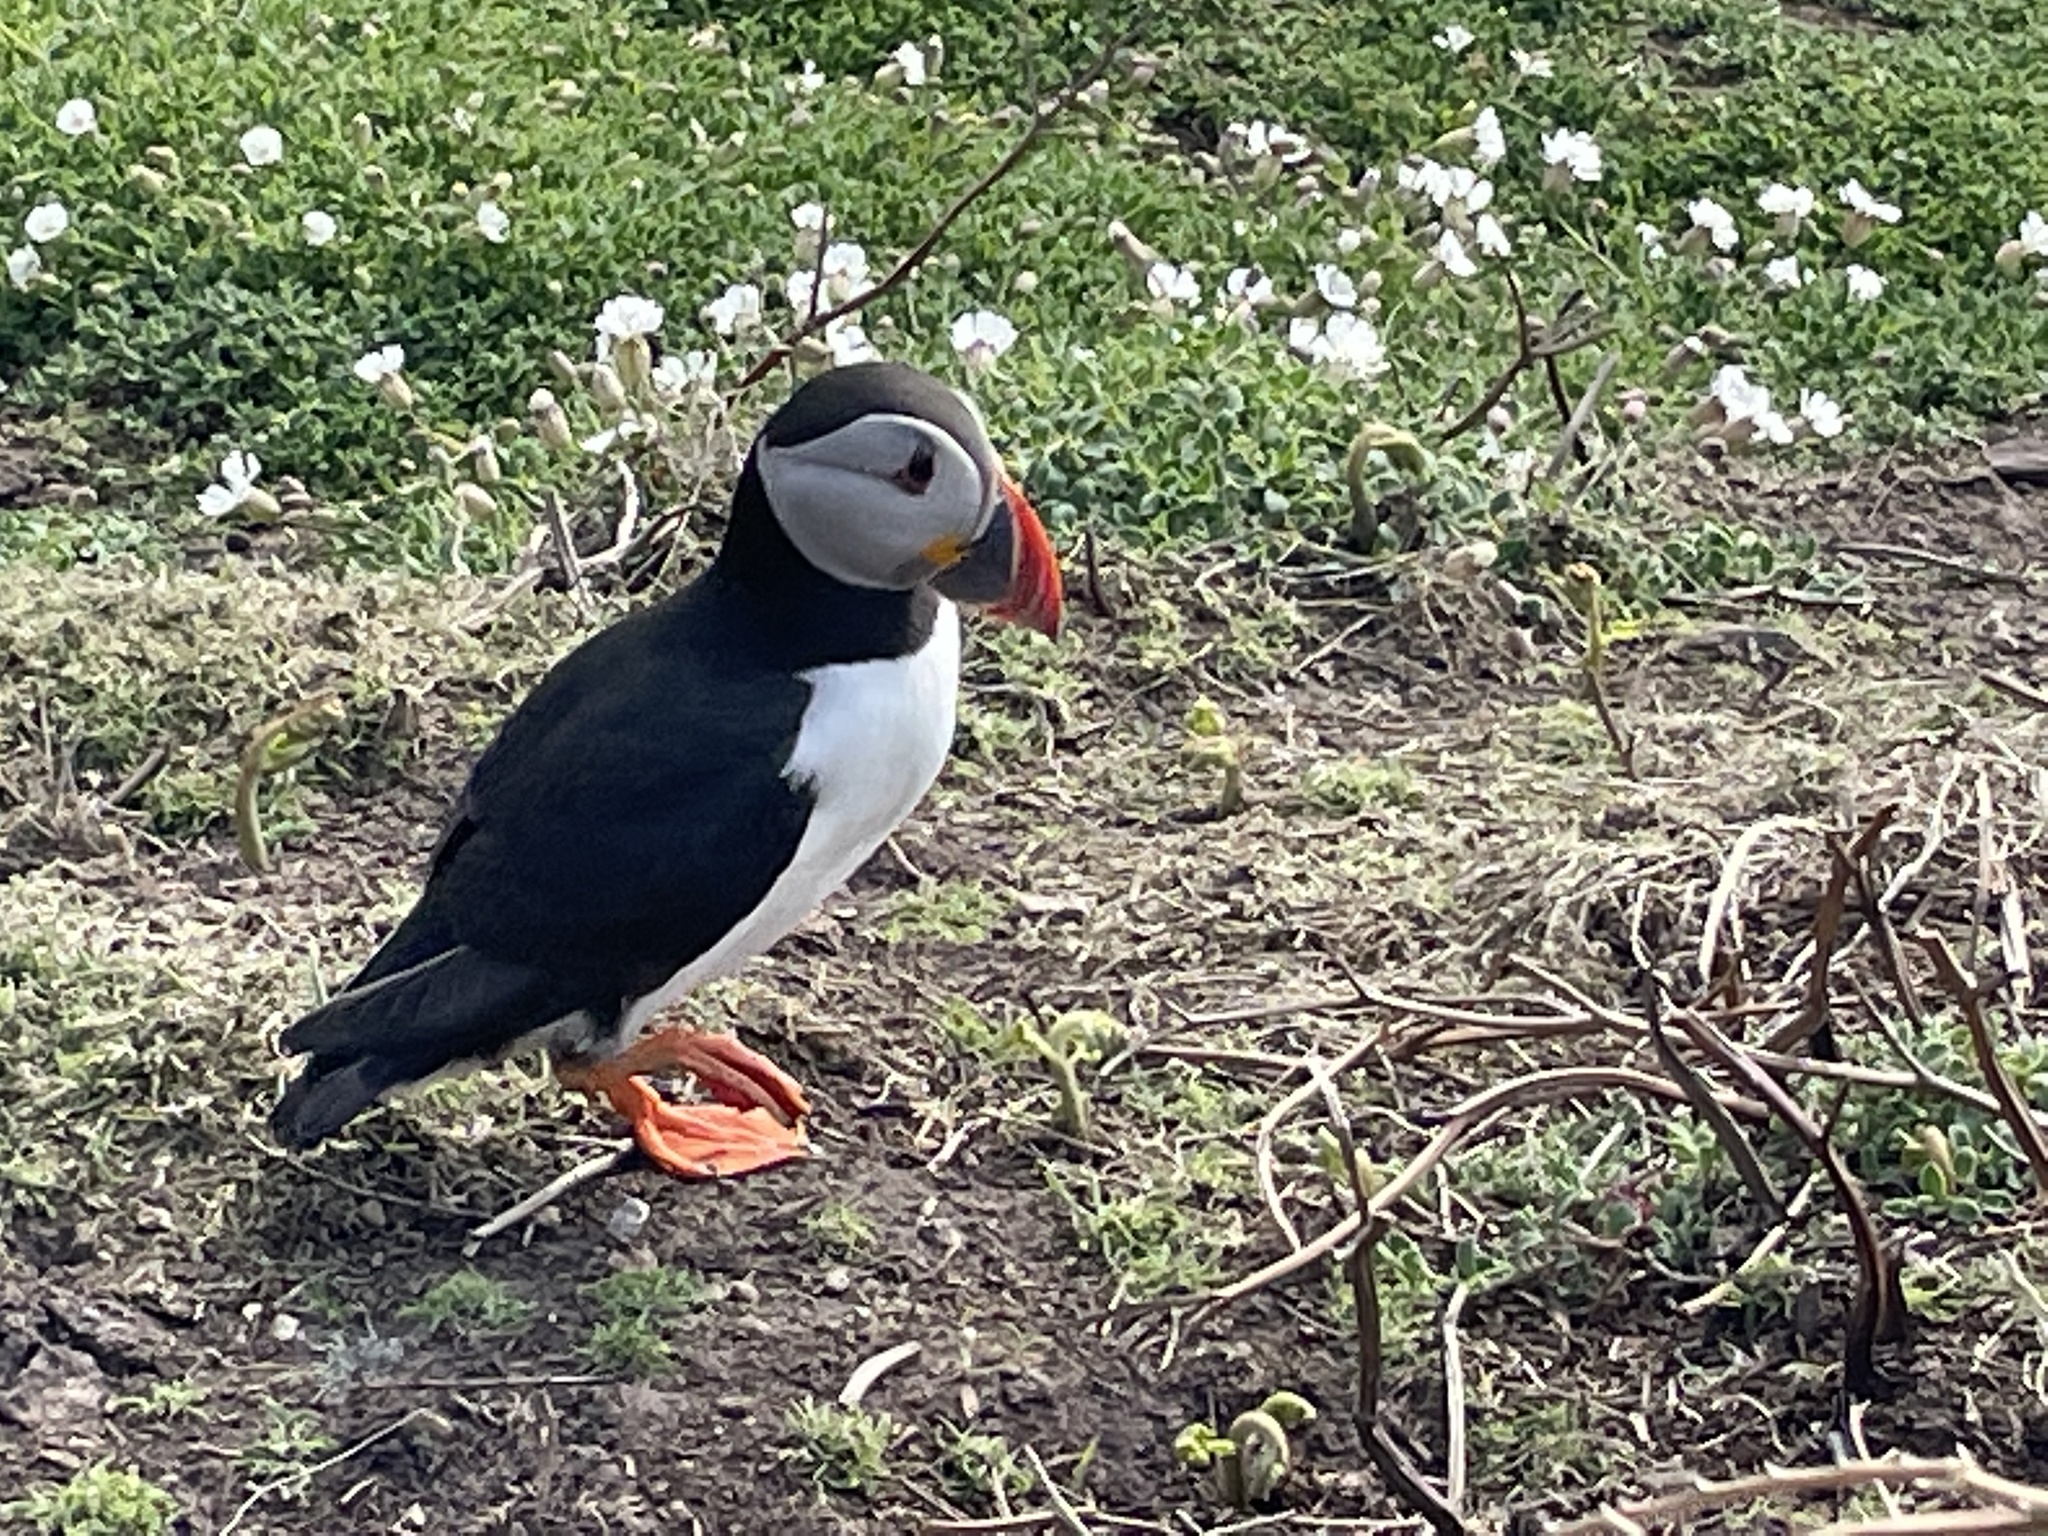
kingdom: Animalia
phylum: Chordata
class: Aves
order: Charadriiformes
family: Alcidae
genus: Fratercula
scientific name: Fratercula arctica
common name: Atlantic puffin
